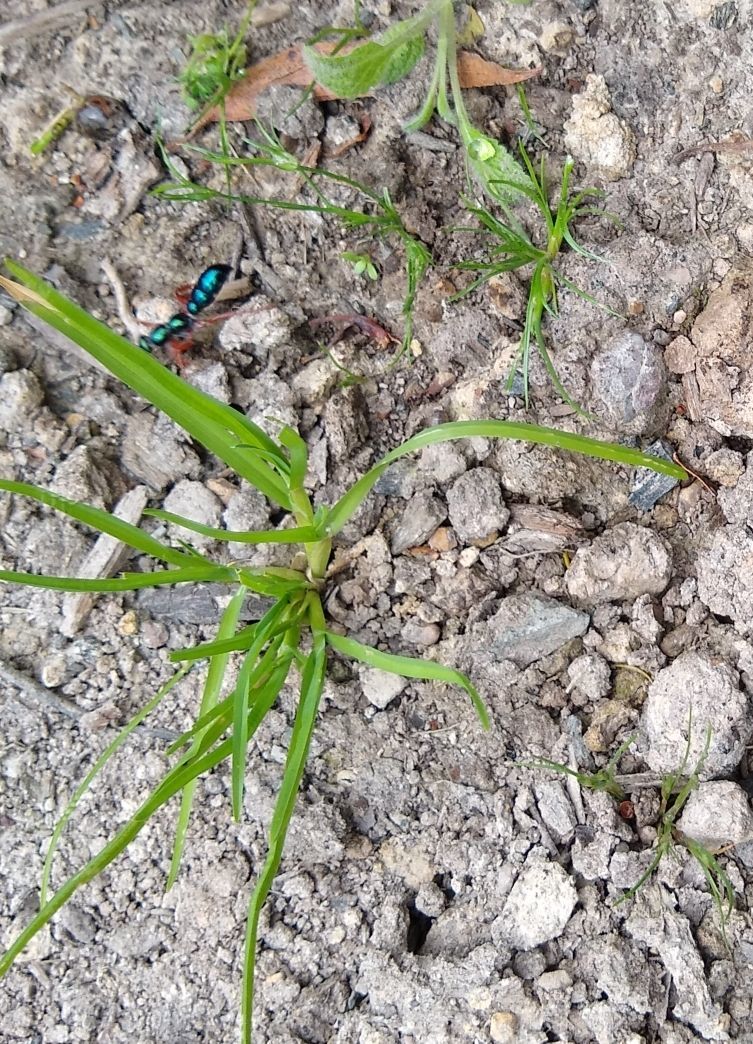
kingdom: Animalia
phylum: Arthropoda
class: Insecta
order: Hymenoptera
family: Tiphiidae
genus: Diamma
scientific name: Diamma
